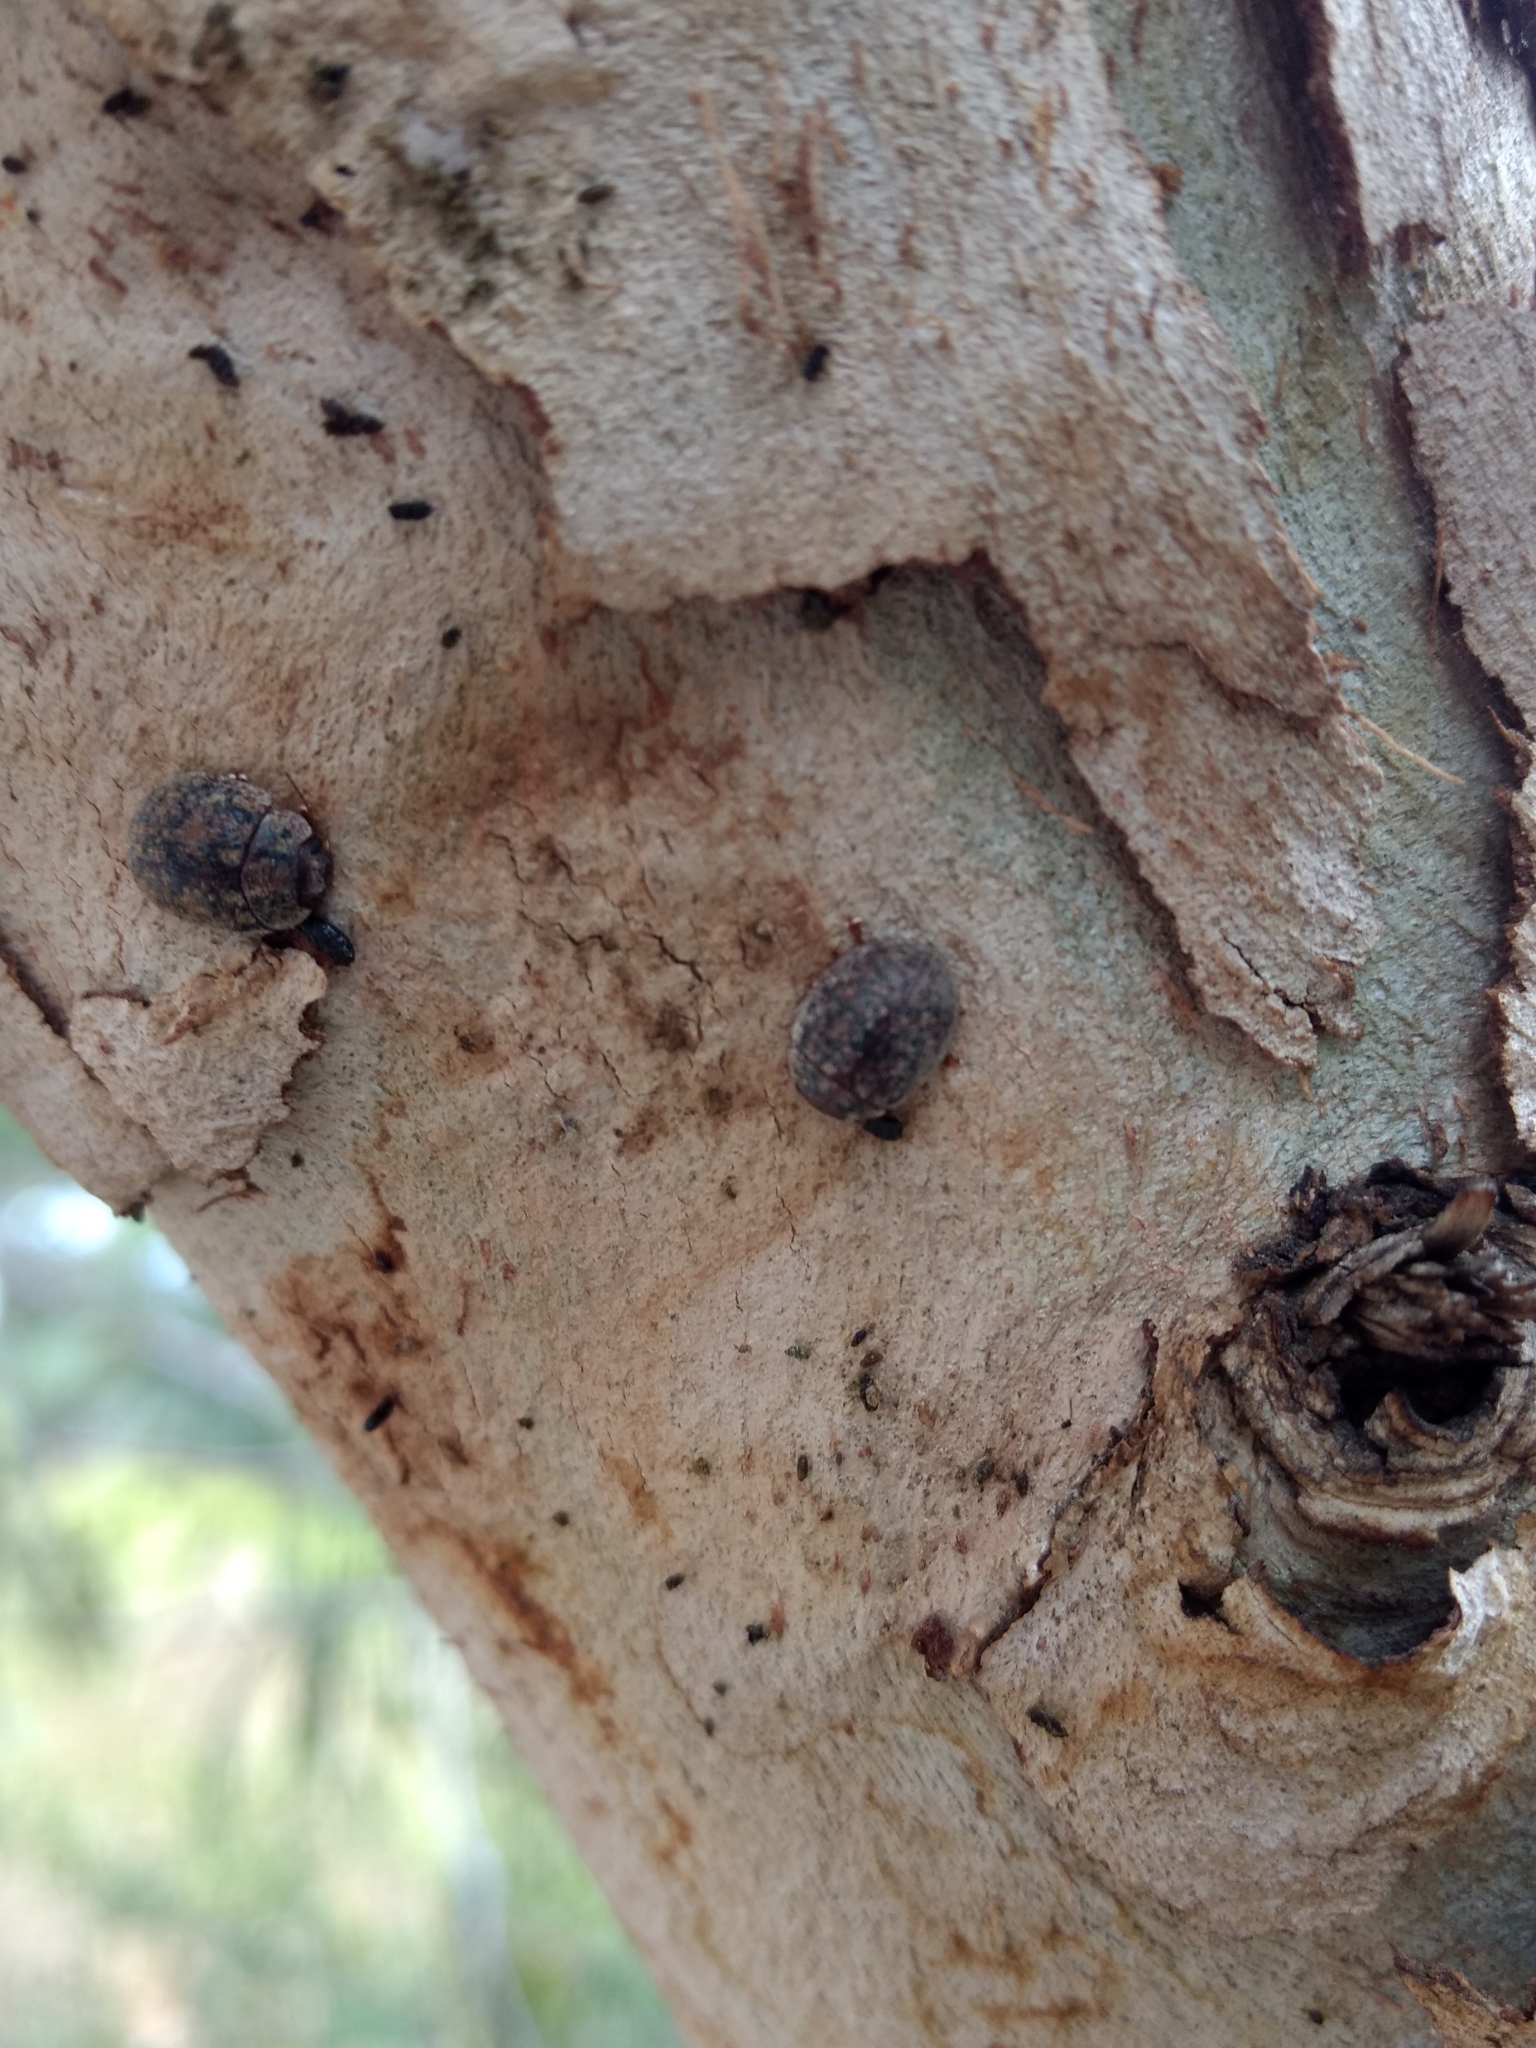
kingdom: Animalia
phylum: Arthropoda
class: Insecta
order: Coleoptera
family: Chrysomelidae
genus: Trachymela
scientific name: Trachymela sloanei
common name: Australian tortoise beetle
